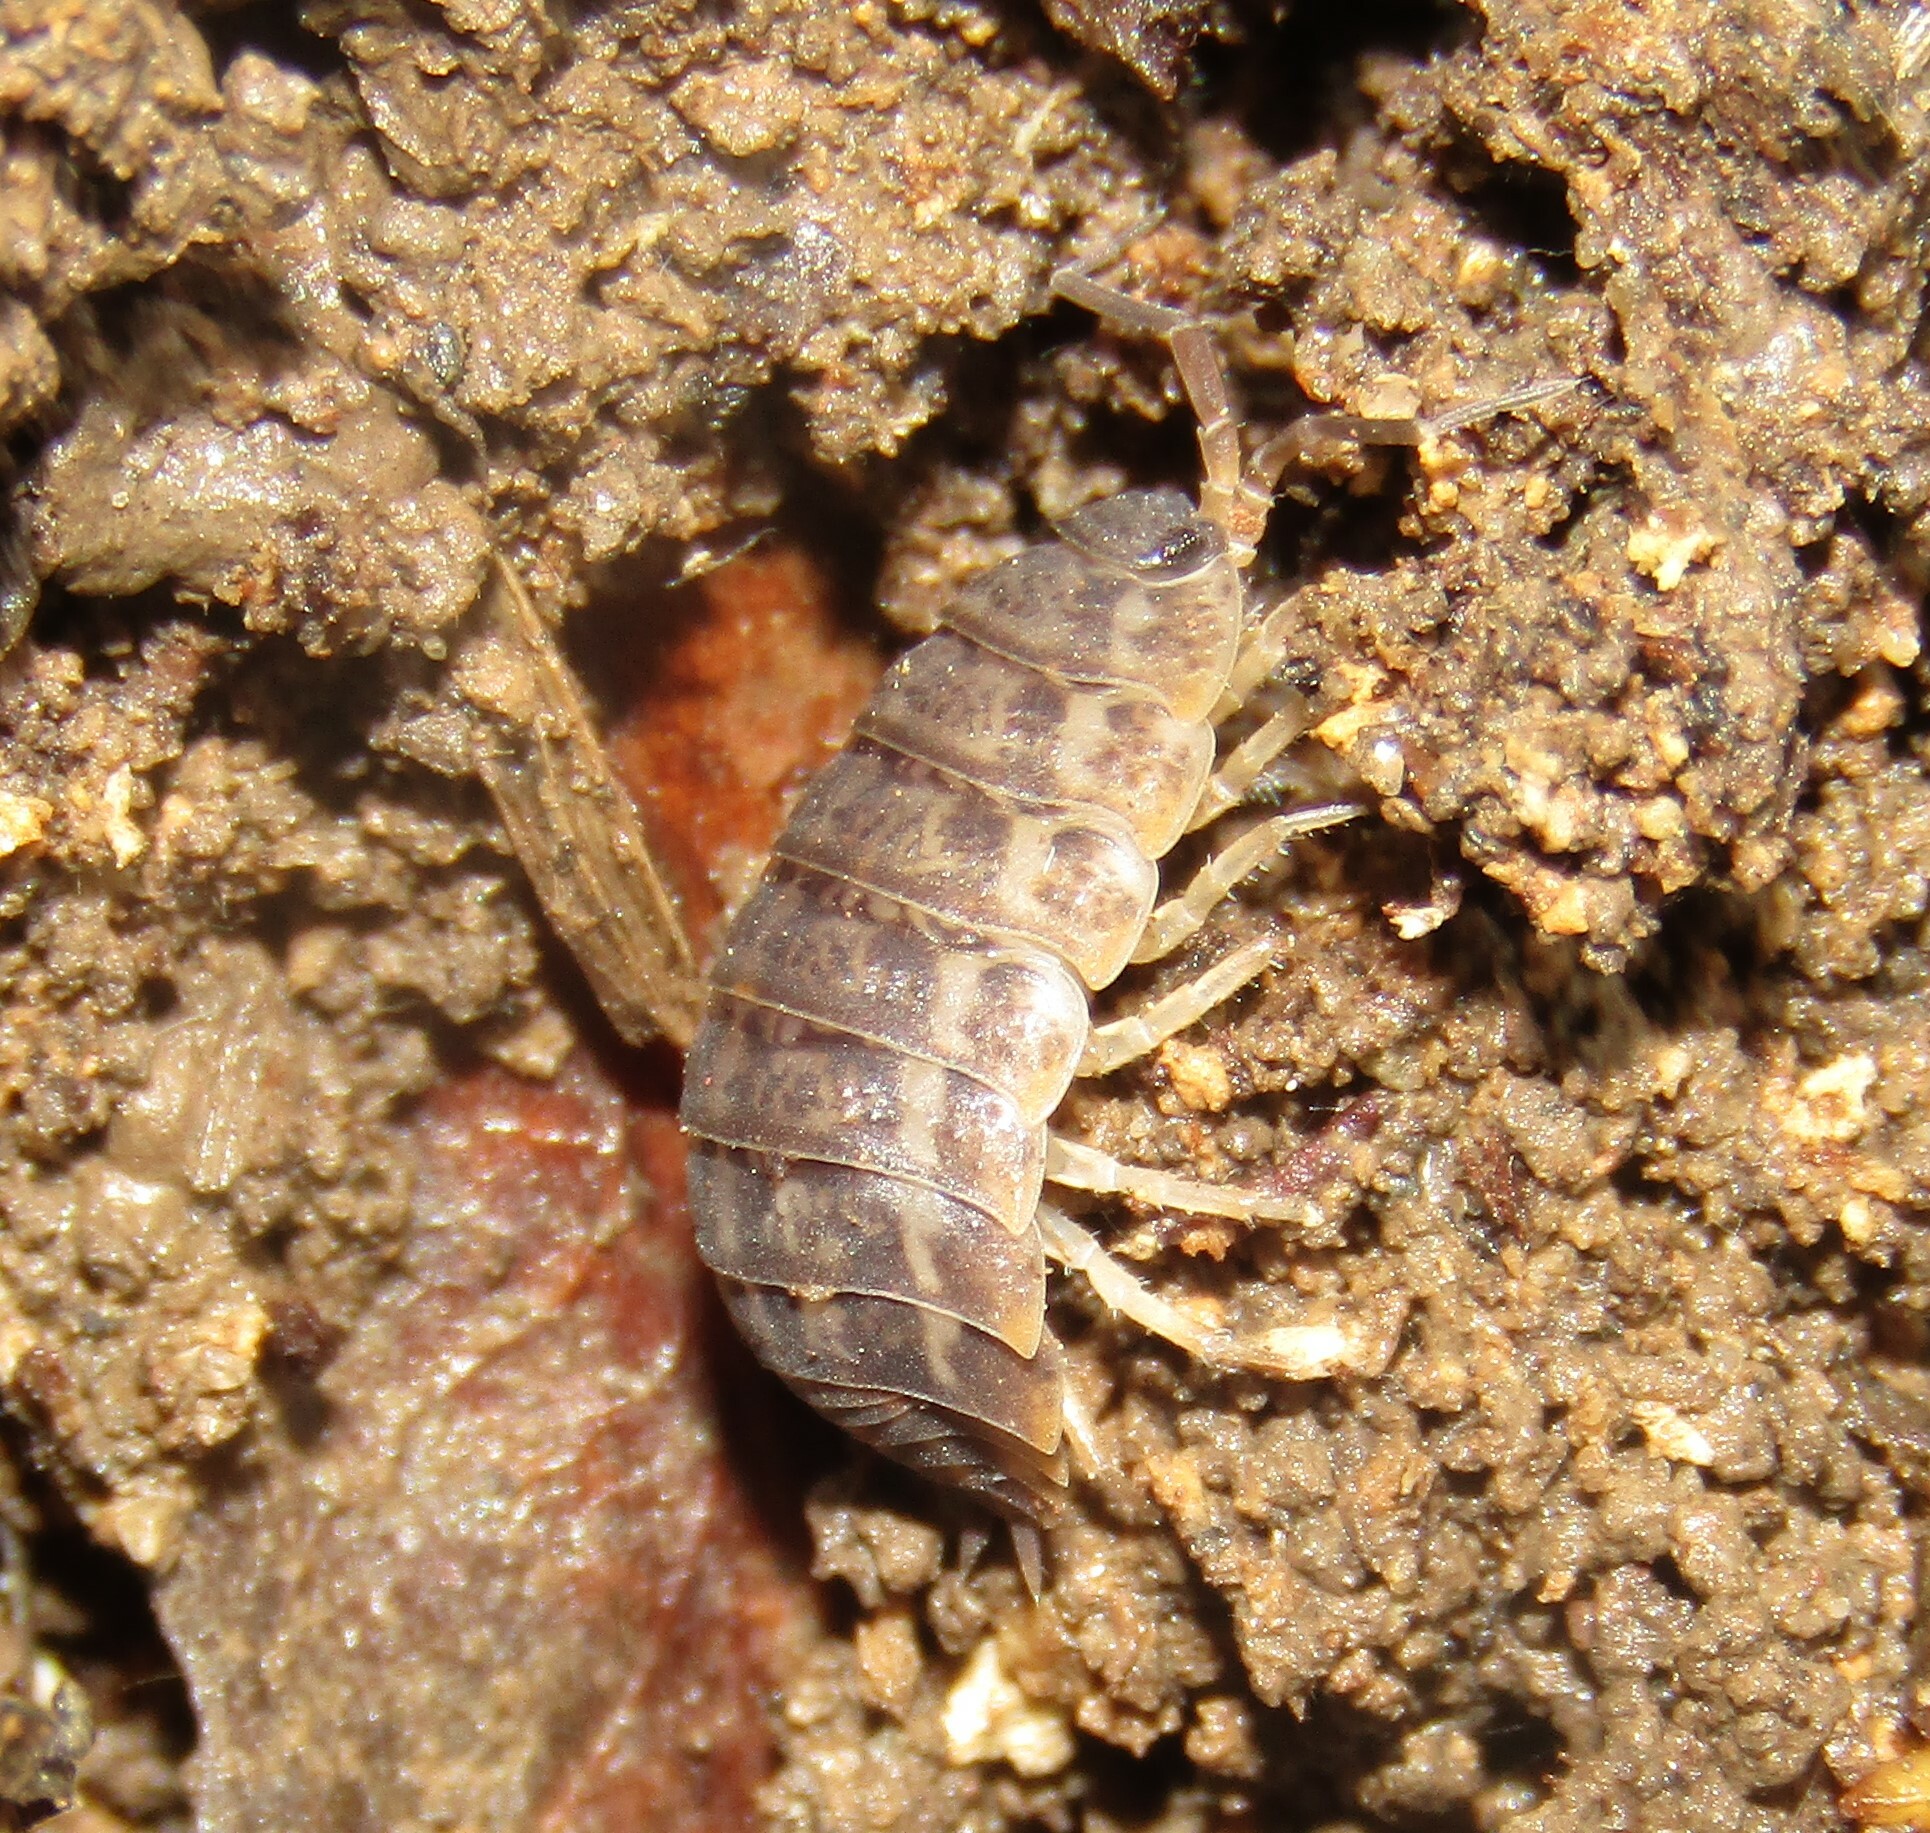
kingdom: Animalia
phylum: Arthropoda
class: Malacostraca
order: Isopoda
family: Trachelipodidae
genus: Trachelipus
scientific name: Trachelipus rathkii
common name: Isopod
